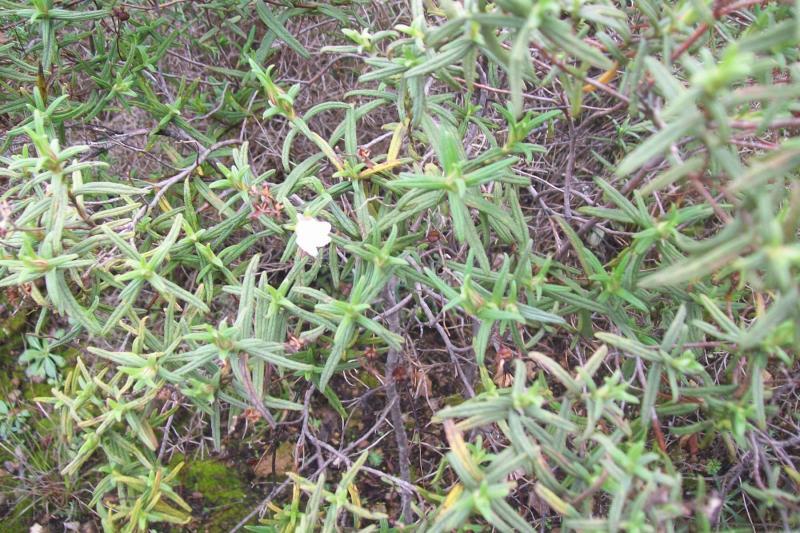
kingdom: Plantae
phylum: Tracheophyta
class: Magnoliopsida
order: Malvales
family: Cistaceae
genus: Cistus
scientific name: Cistus monspeliensis
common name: Montpelier cistus
